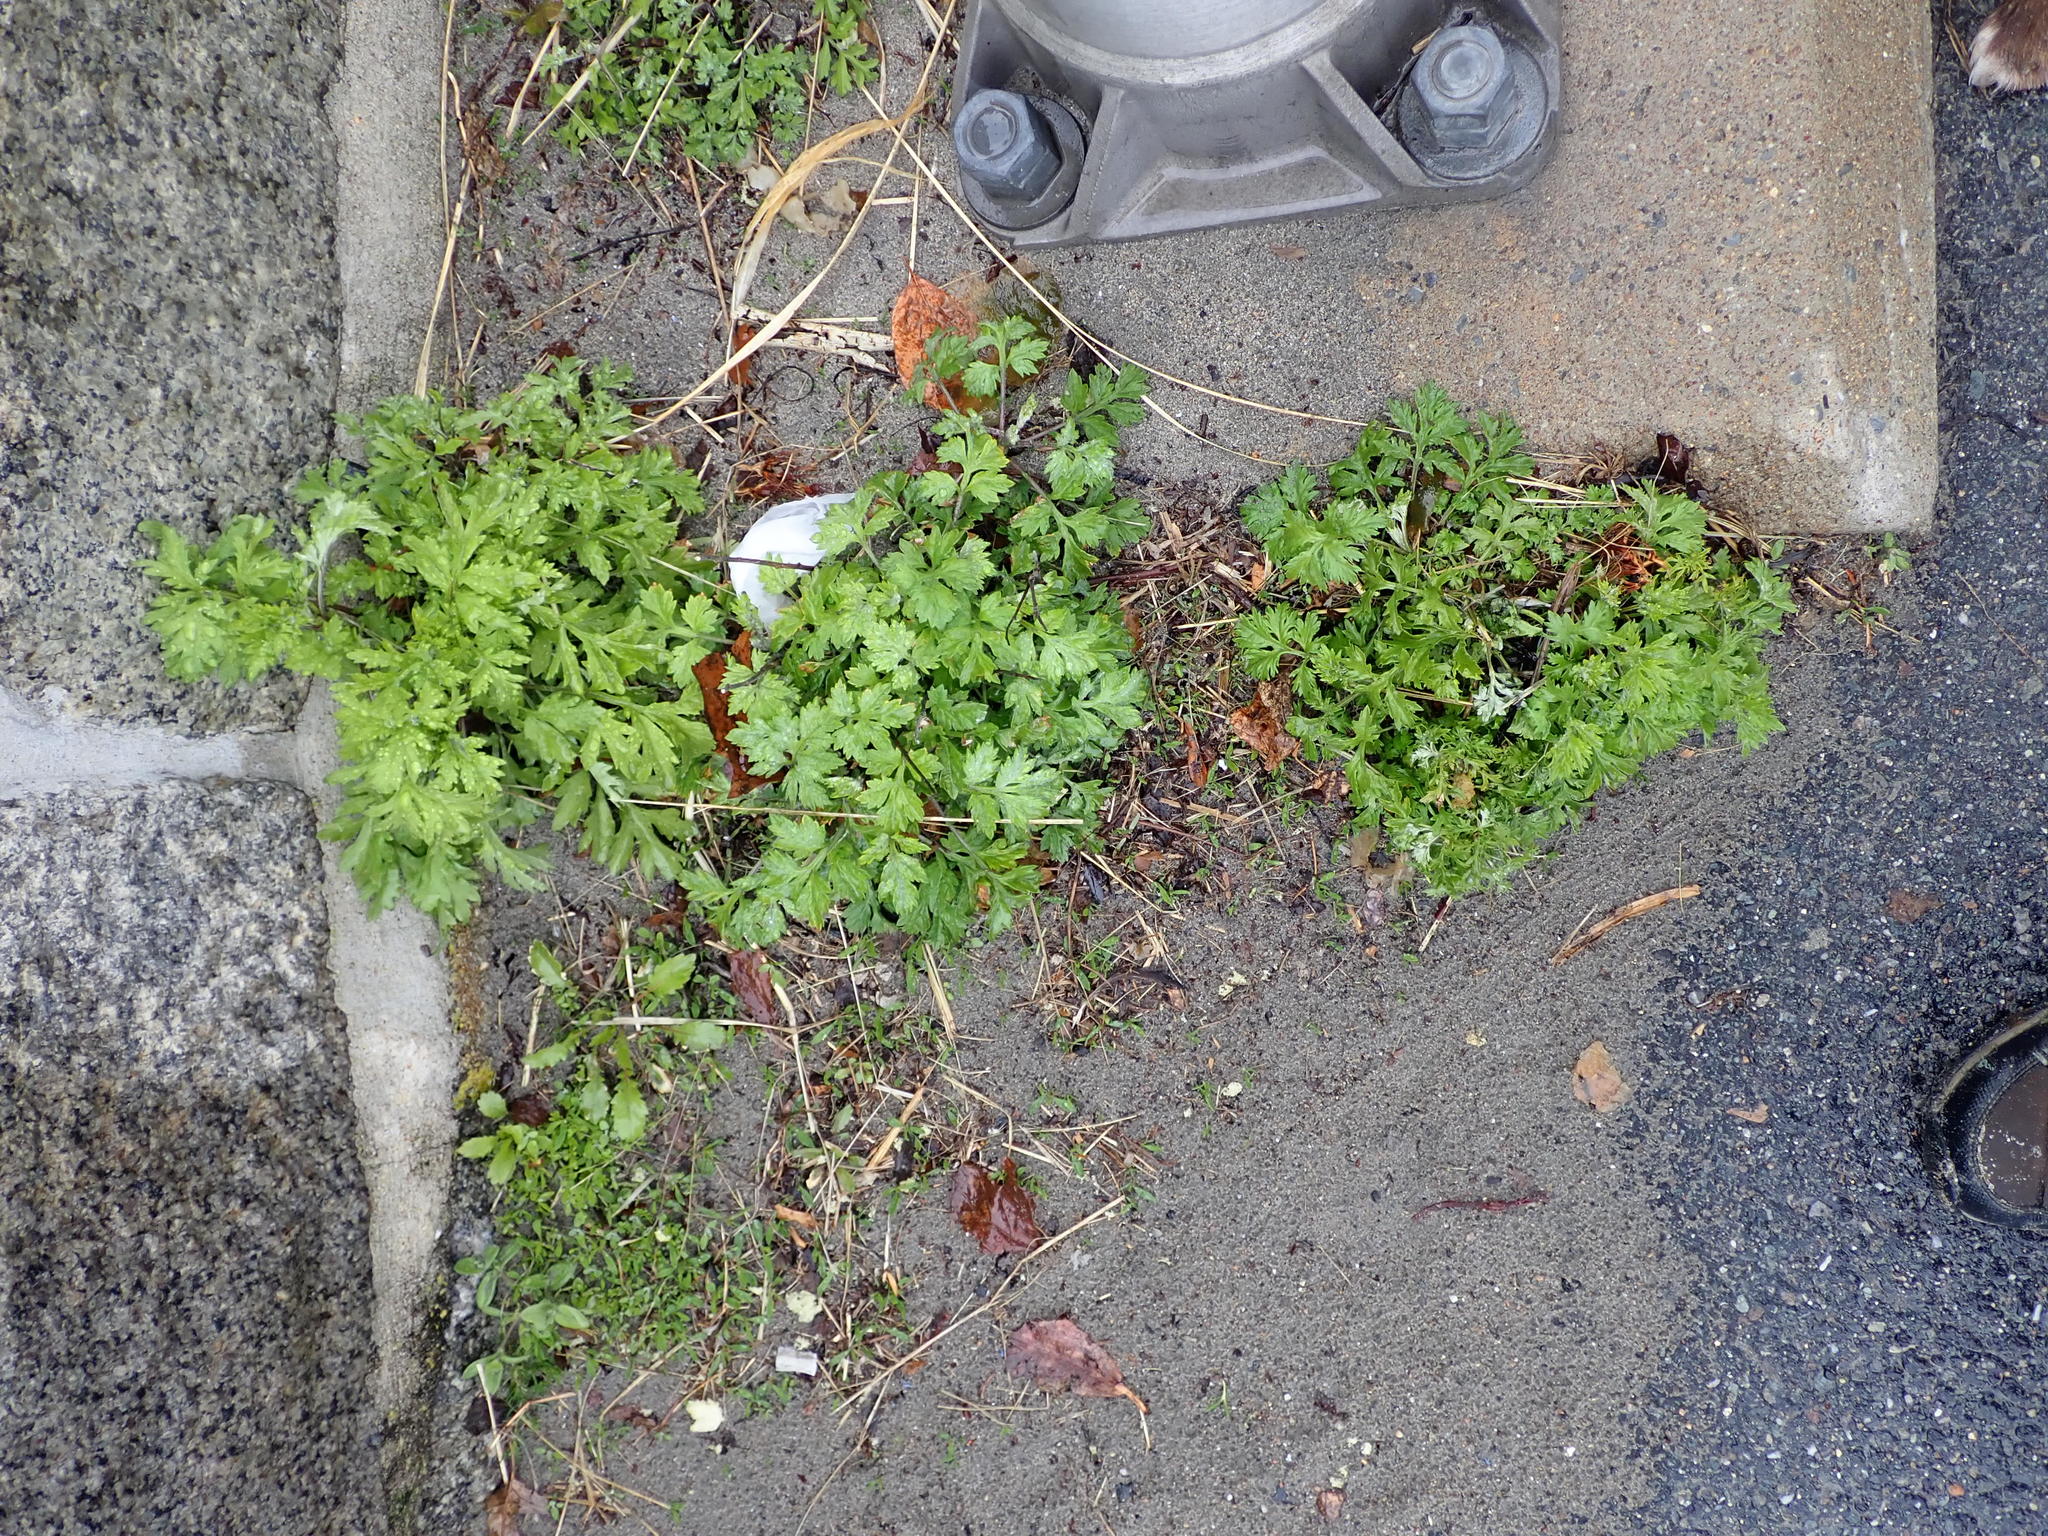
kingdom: Plantae
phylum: Tracheophyta
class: Magnoliopsida
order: Asterales
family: Asteraceae
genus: Artemisia
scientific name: Artemisia vulgaris
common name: Mugwort
